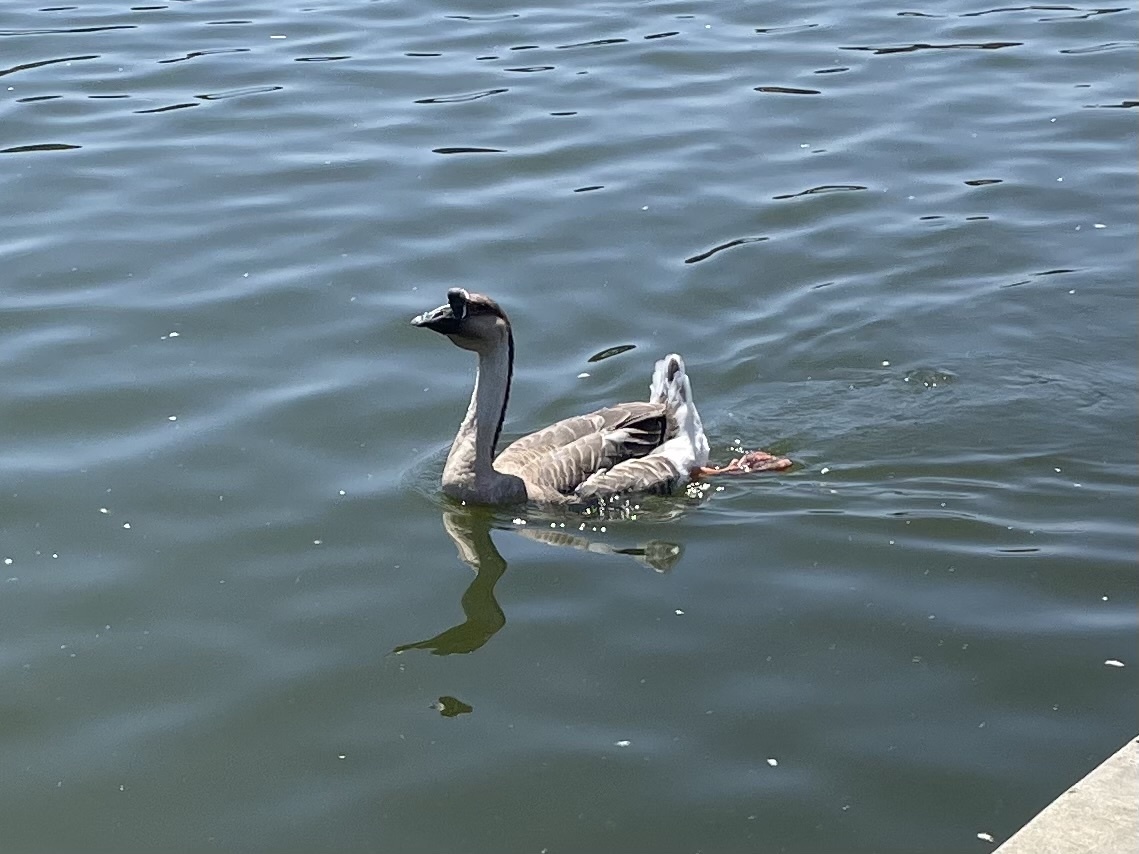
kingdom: Animalia
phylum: Chordata
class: Aves
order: Anseriformes
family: Anatidae
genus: Anser
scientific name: Anser cygnoides
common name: Swan goose
